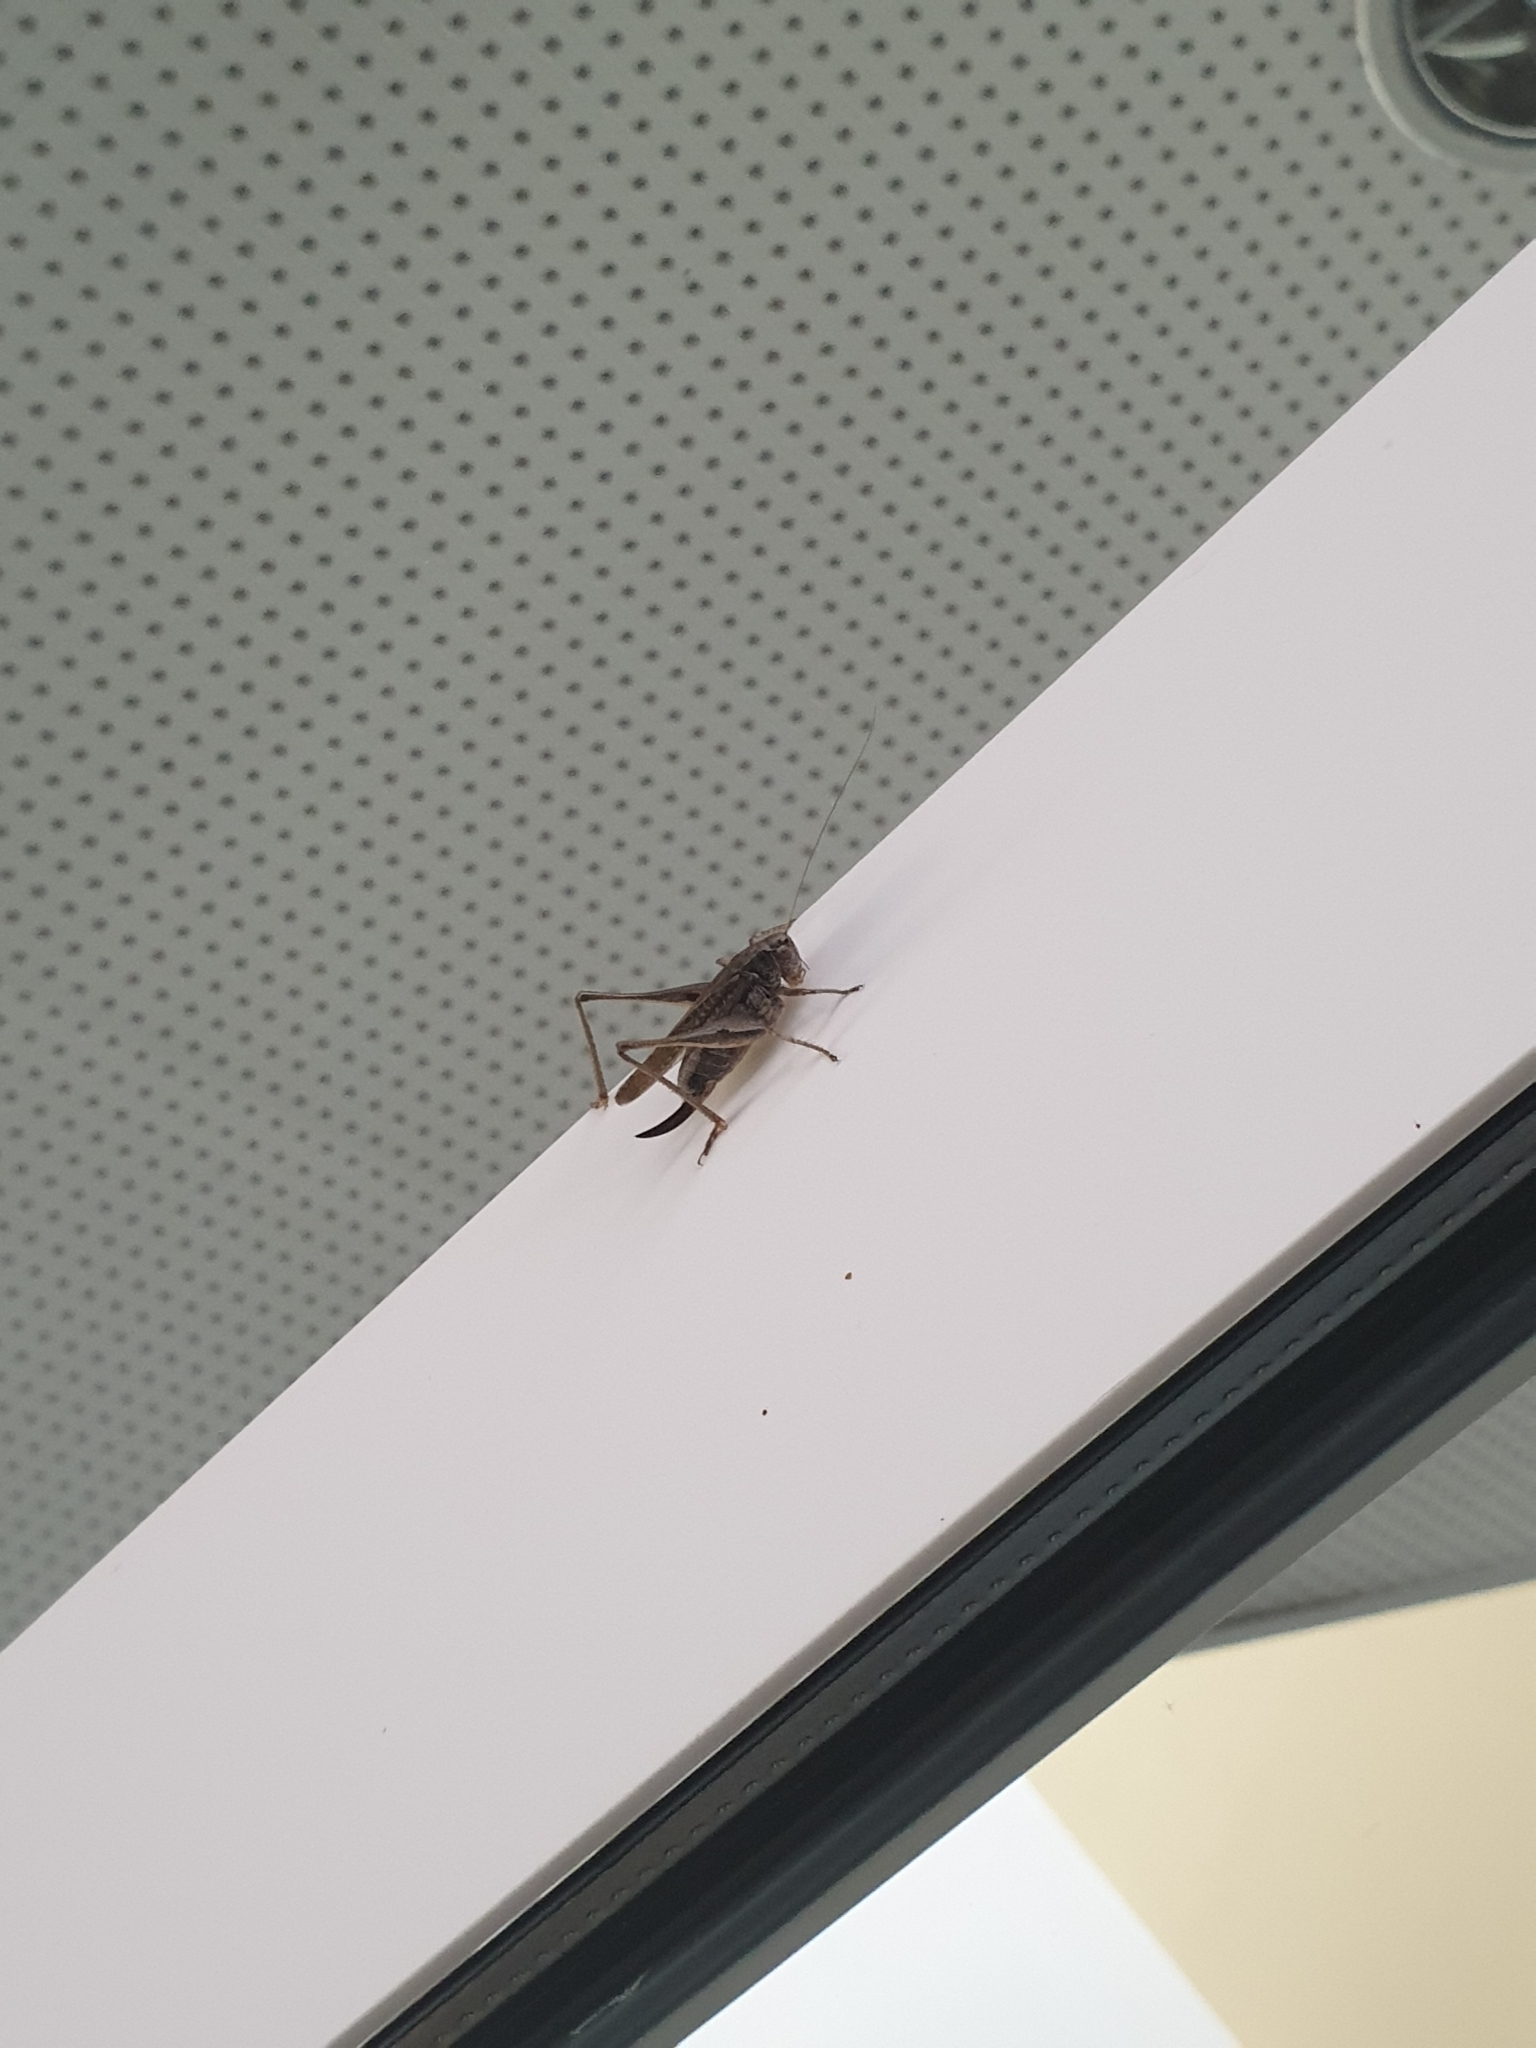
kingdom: Animalia
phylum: Arthropoda
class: Insecta
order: Orthoptera
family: Tettigoniidae
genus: Platycleis
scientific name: Platycleis albopunctata
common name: Grey bush-cricket
